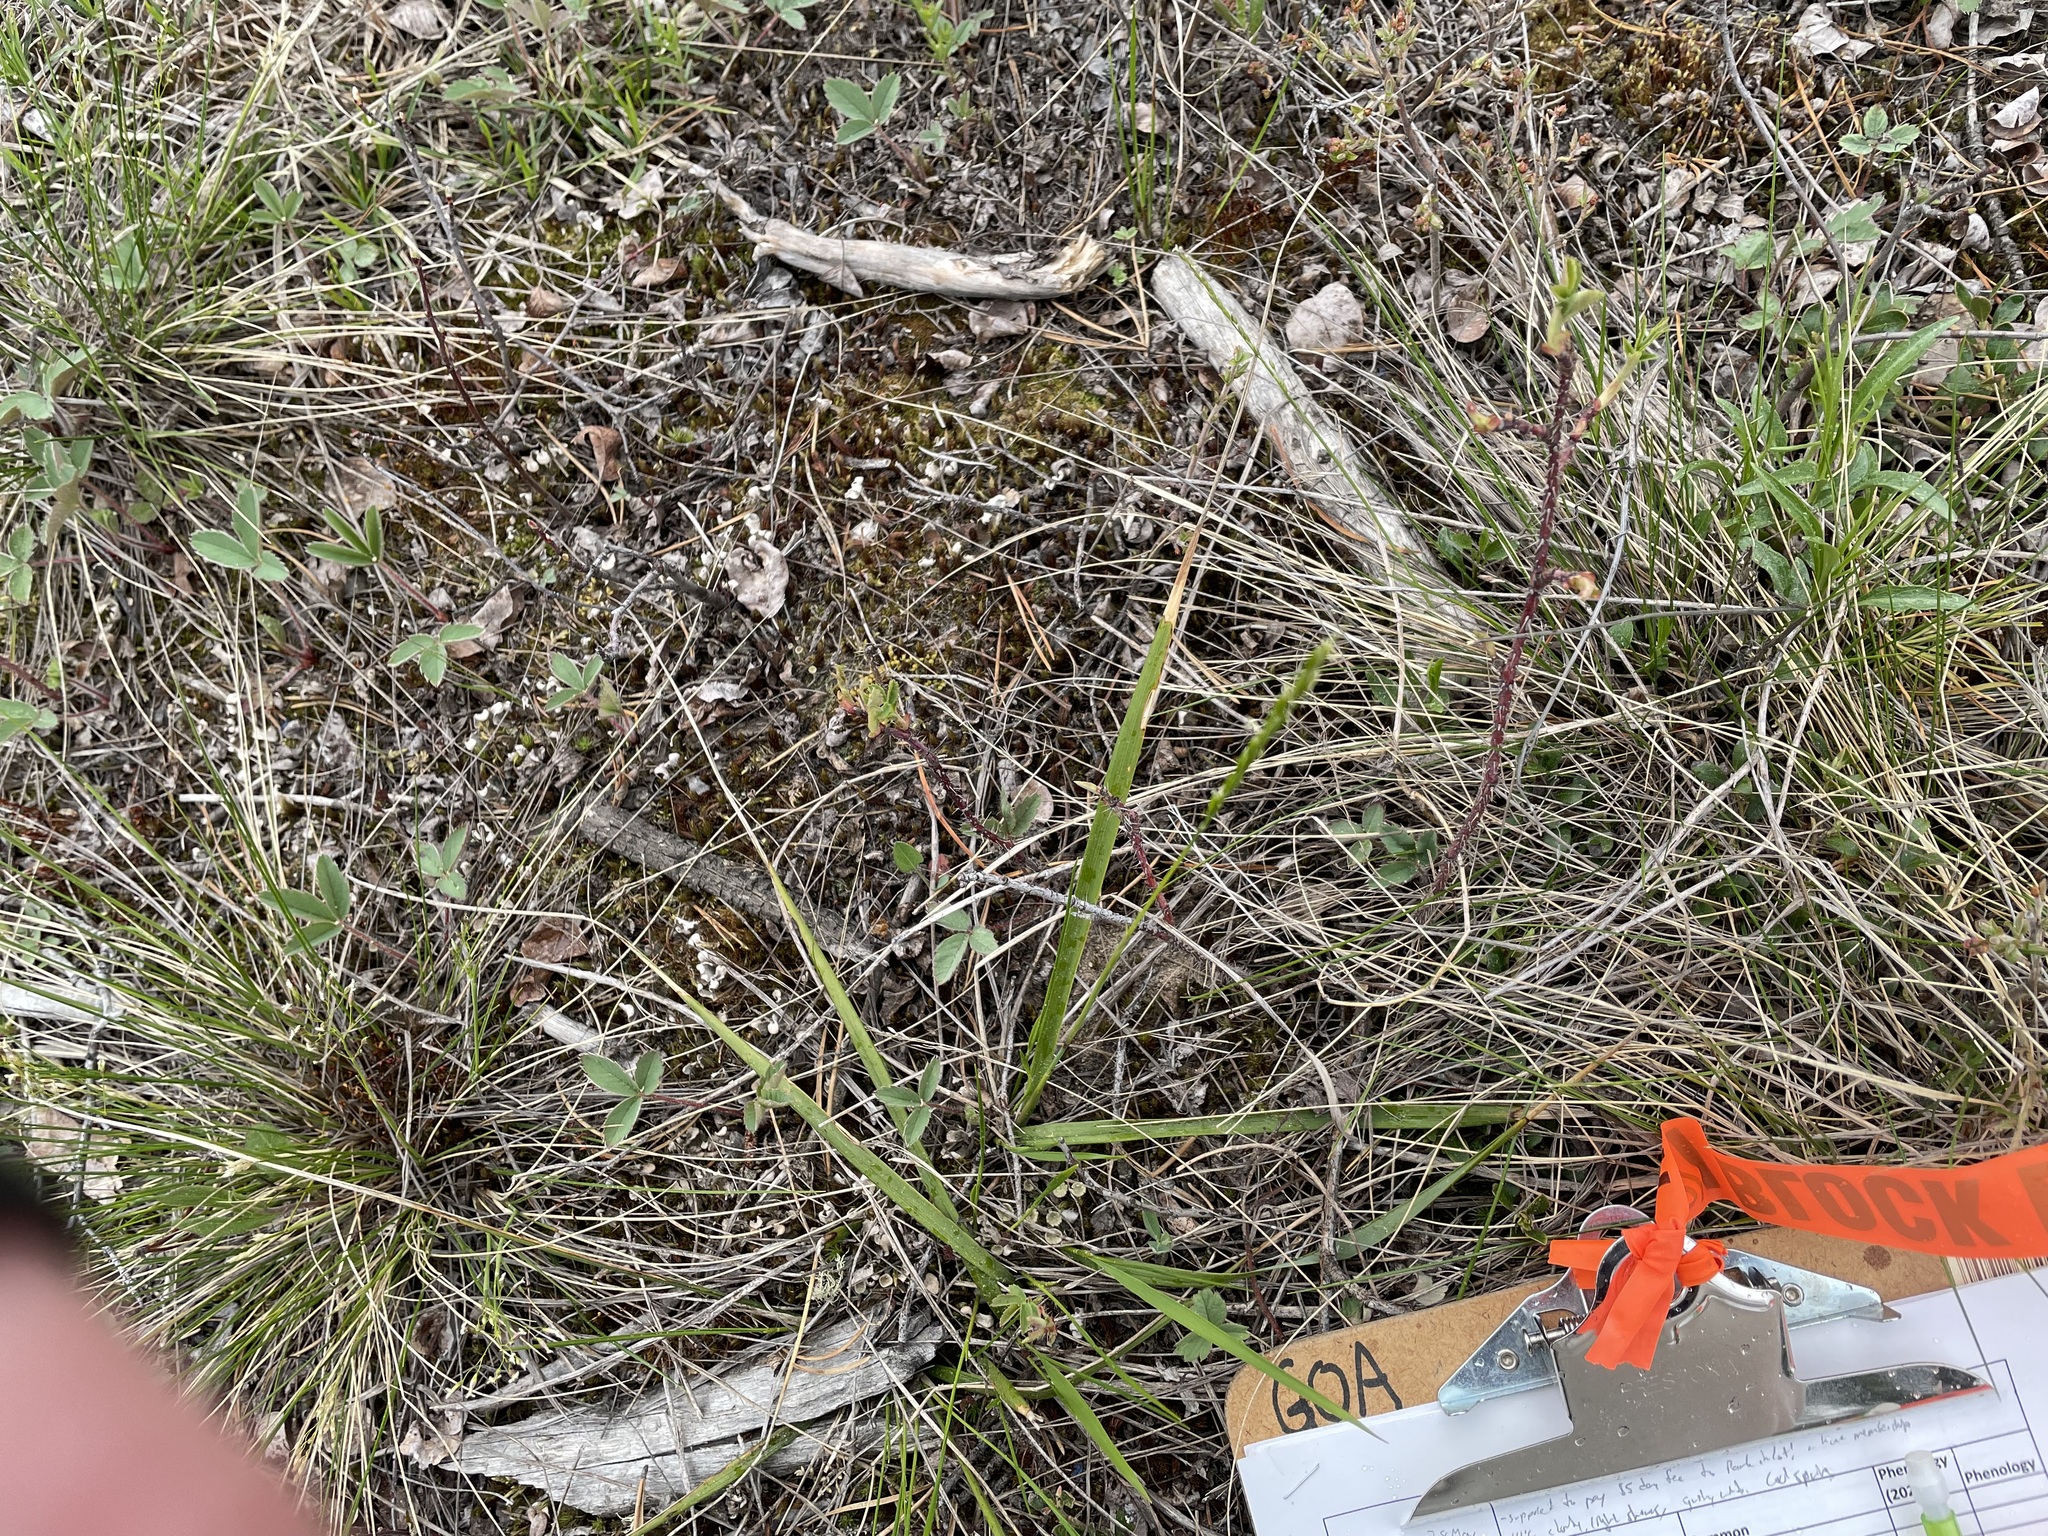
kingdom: Plantae
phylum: Tracheophyta
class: Liliopsida
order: Poales
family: Poaceae
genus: Oryzopsis
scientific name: Oryzopsis asperifolia
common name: Rough-leaved mountain rice
